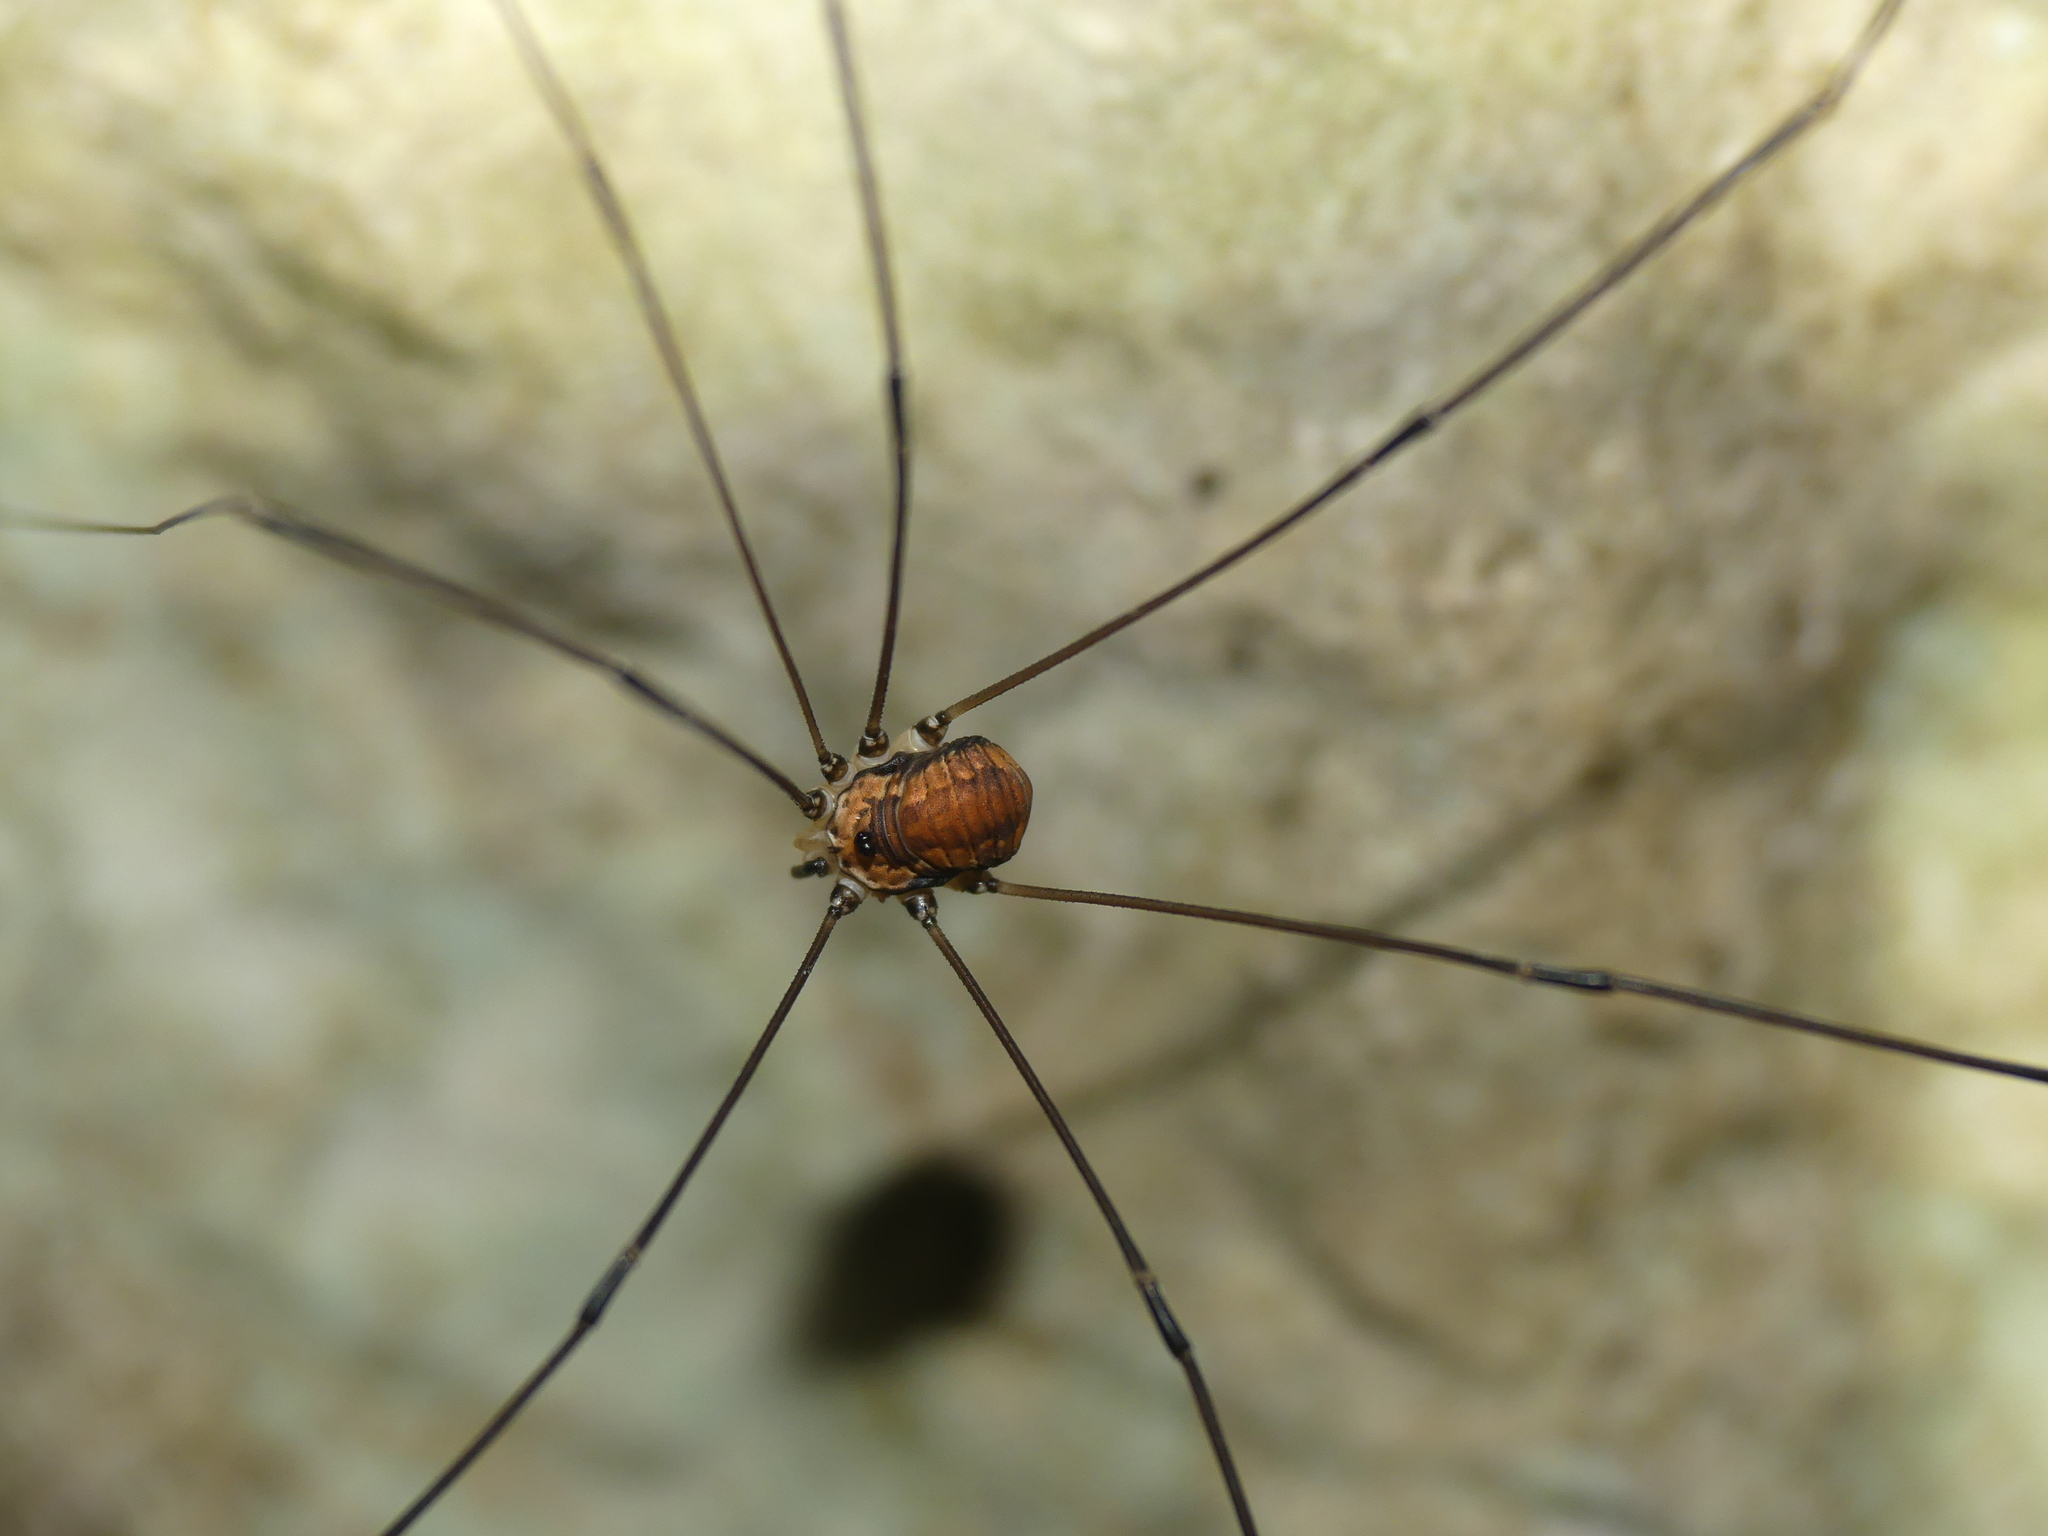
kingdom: Animalia
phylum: Arthropoda
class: Arachnida
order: Opiliones
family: Sclerosomatidae
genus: Leiobunum
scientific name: Leiobunum limbatum
